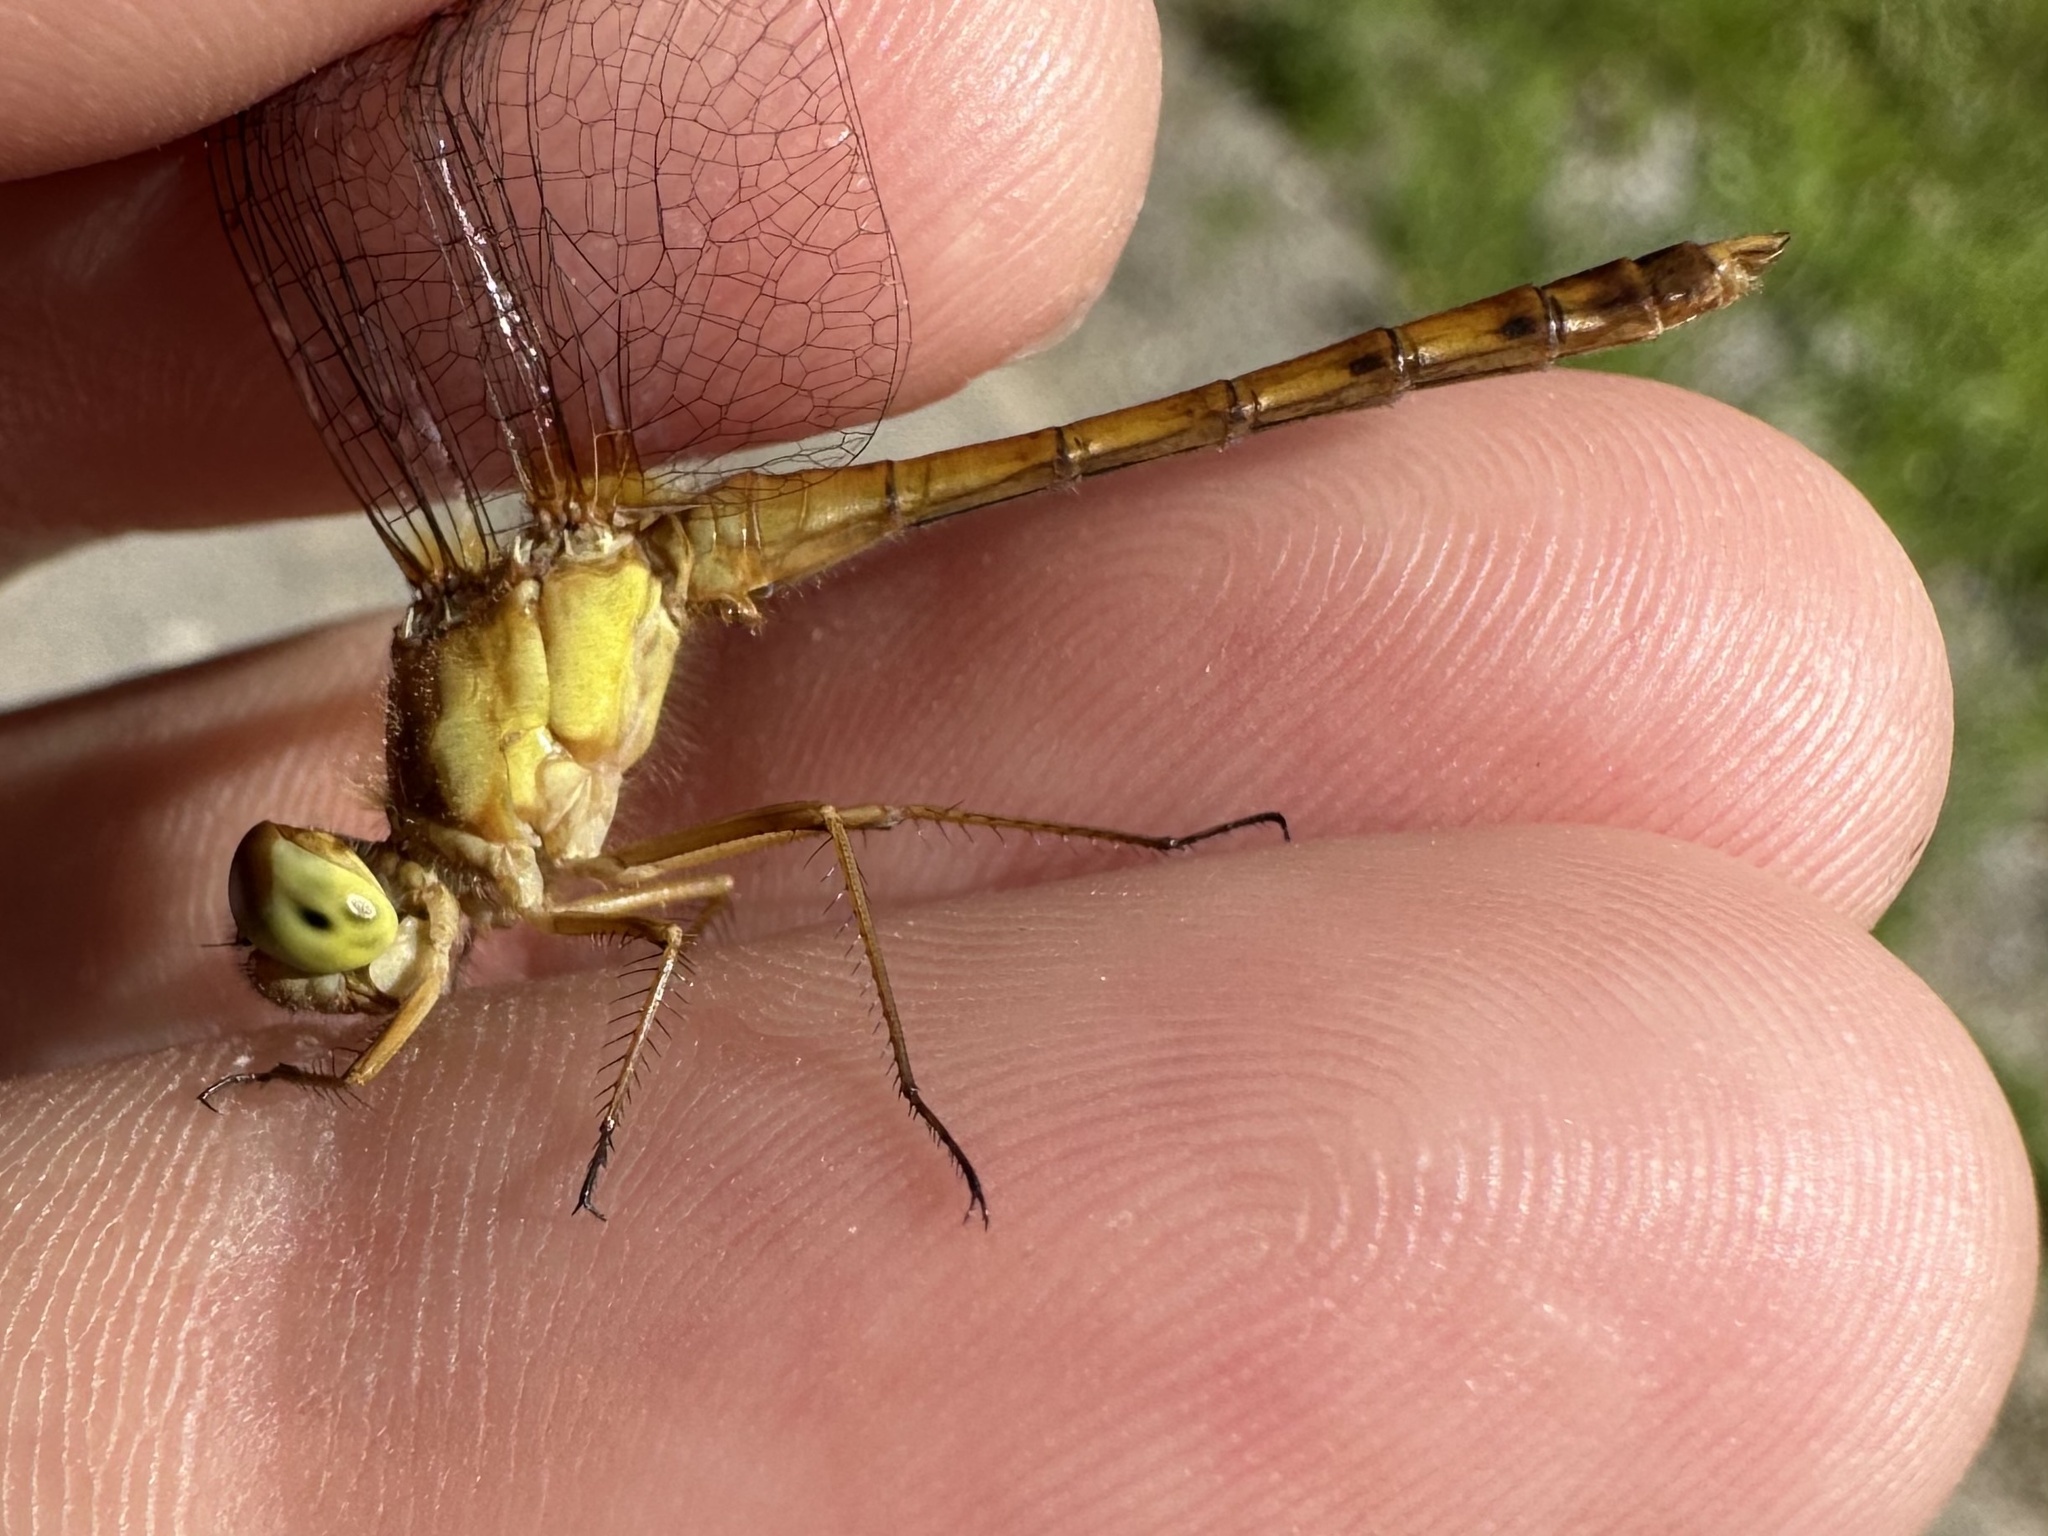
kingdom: Animalia
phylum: Arthropoda
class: Insecta
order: Odonata
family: Libellulidae
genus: Sympetrum
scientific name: Sympetrum vicinum
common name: Autumn meadowhawk
